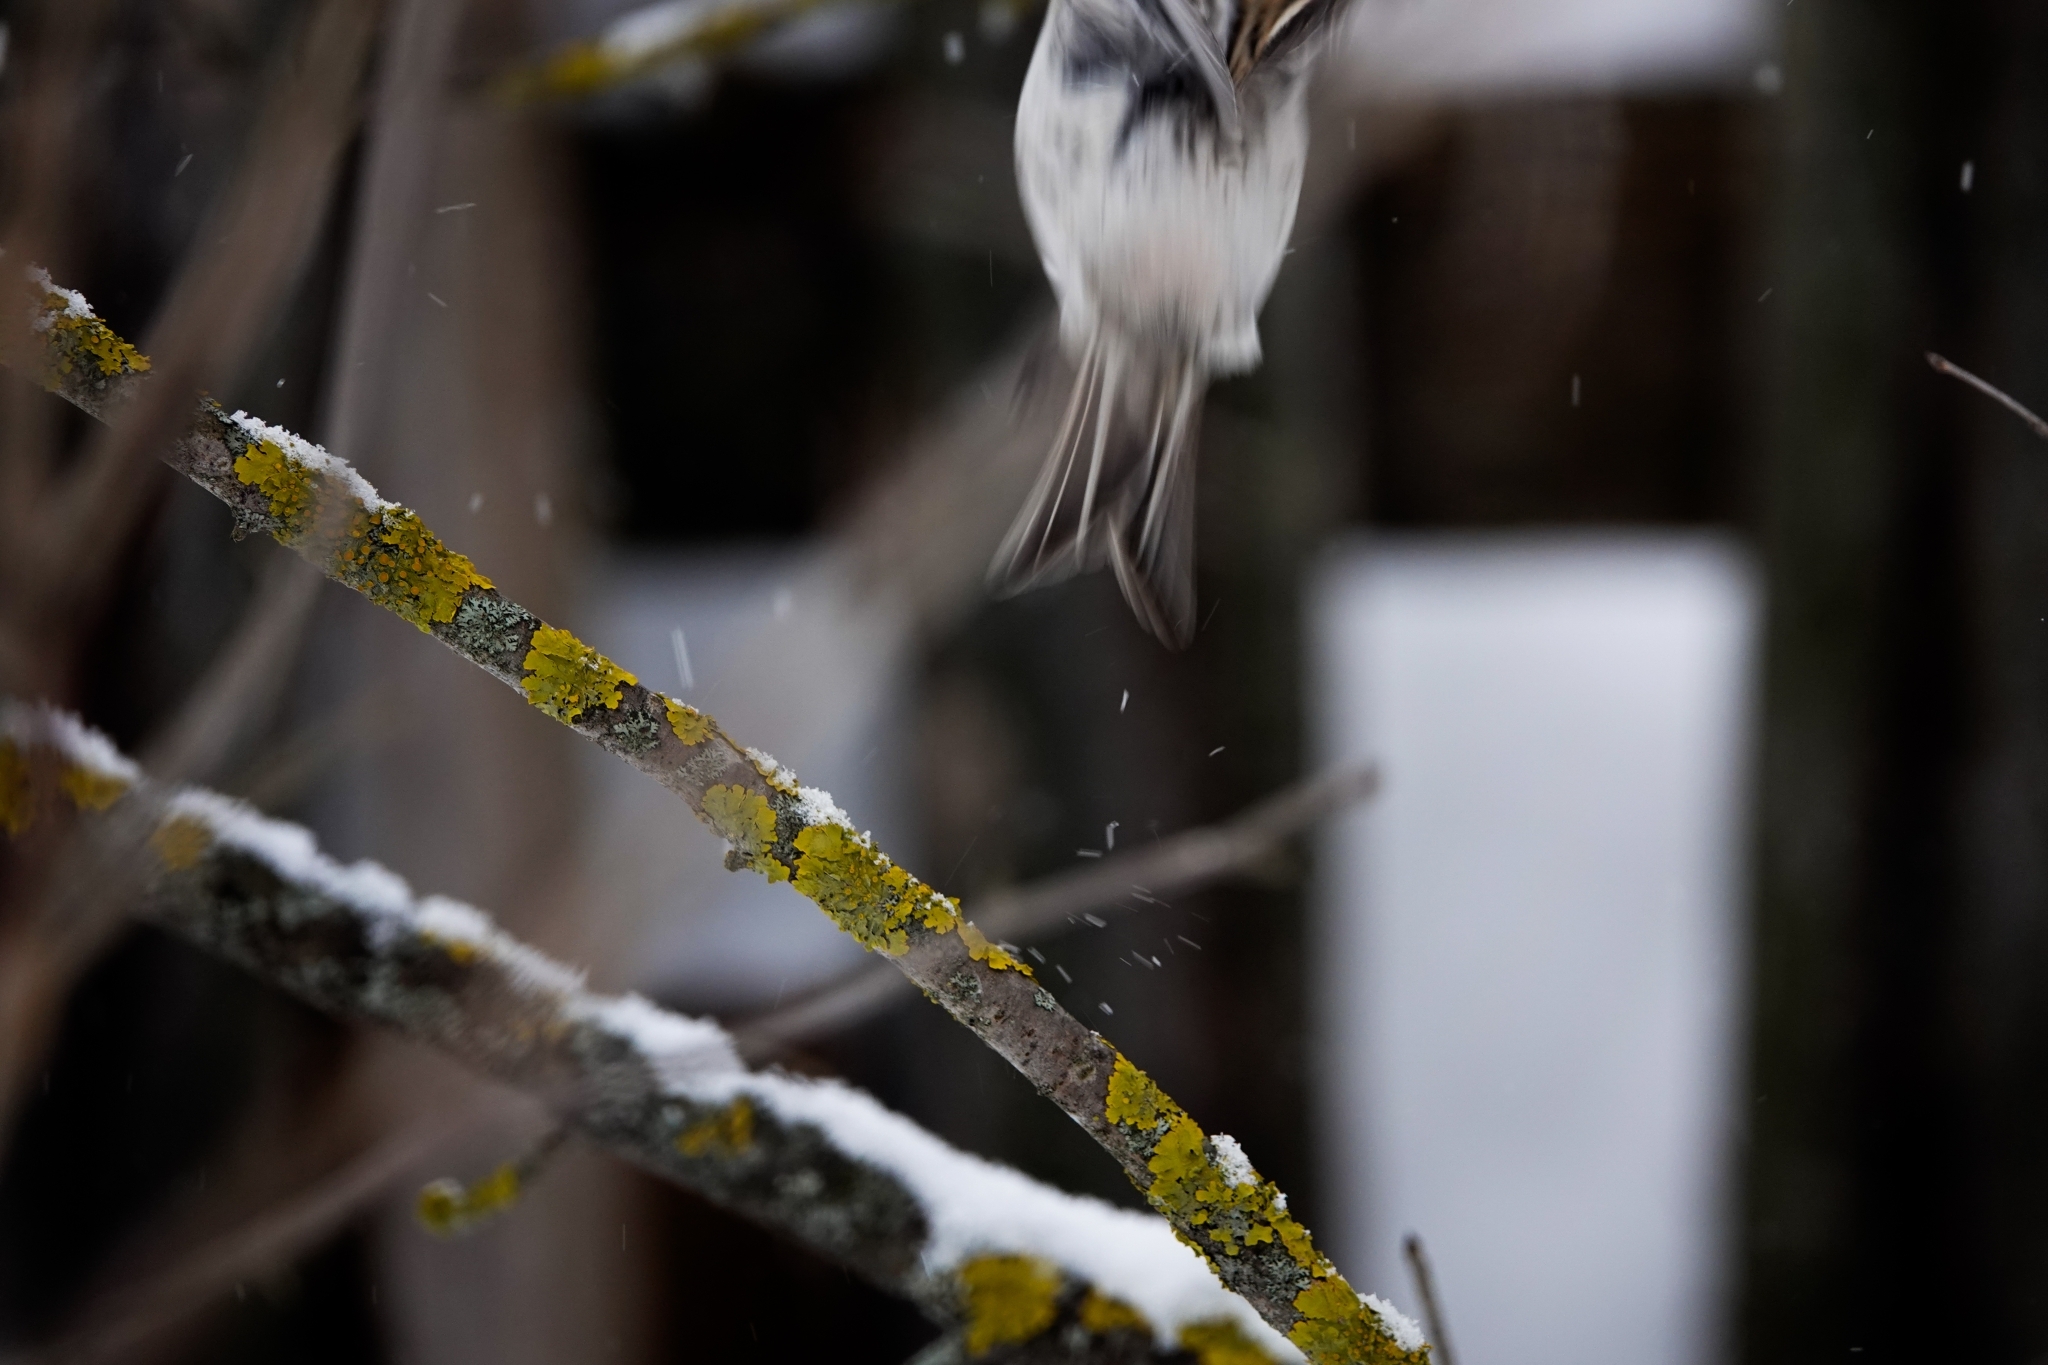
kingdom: Animalia
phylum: Chordata
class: Aves
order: Passeriformes
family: Fringillidae
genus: Acanthis
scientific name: Acanthis hornemanni
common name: Arctic redpoll
